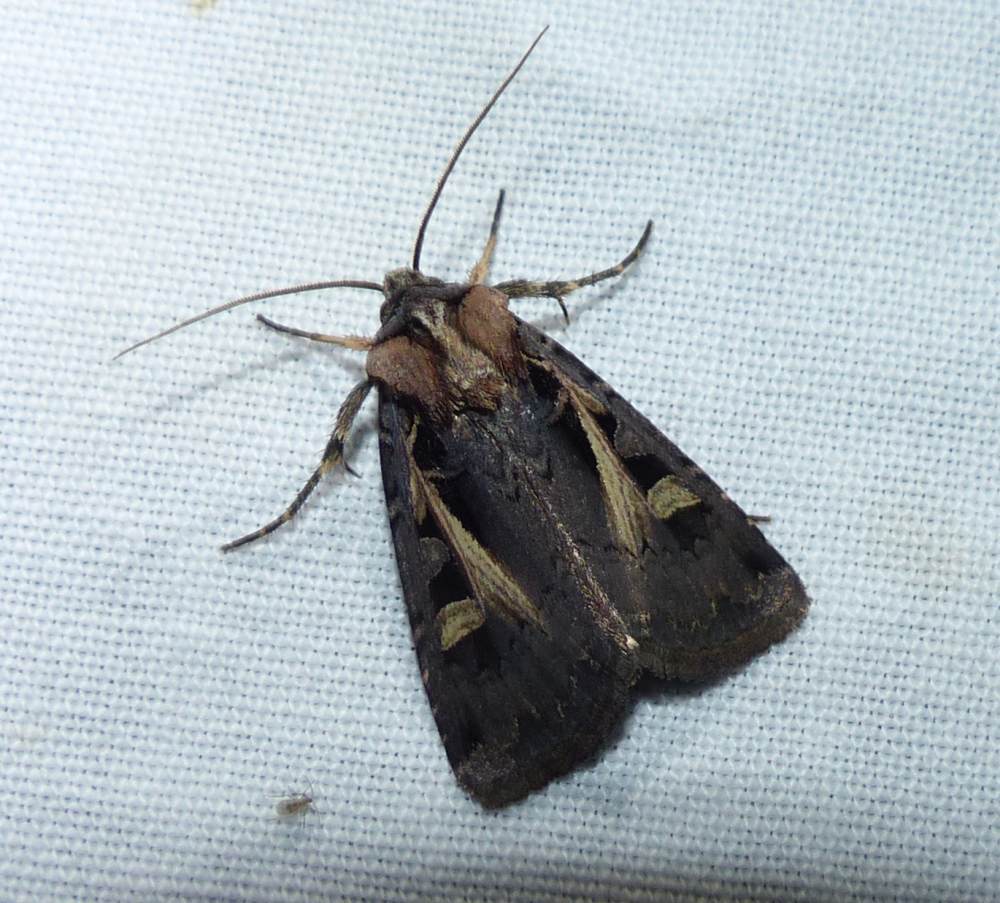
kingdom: Animalia
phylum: Arthropoda
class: Insecta
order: Lepidoptera
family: Noctuidae
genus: Feltia
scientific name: Feltia herilis
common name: Master's dart
